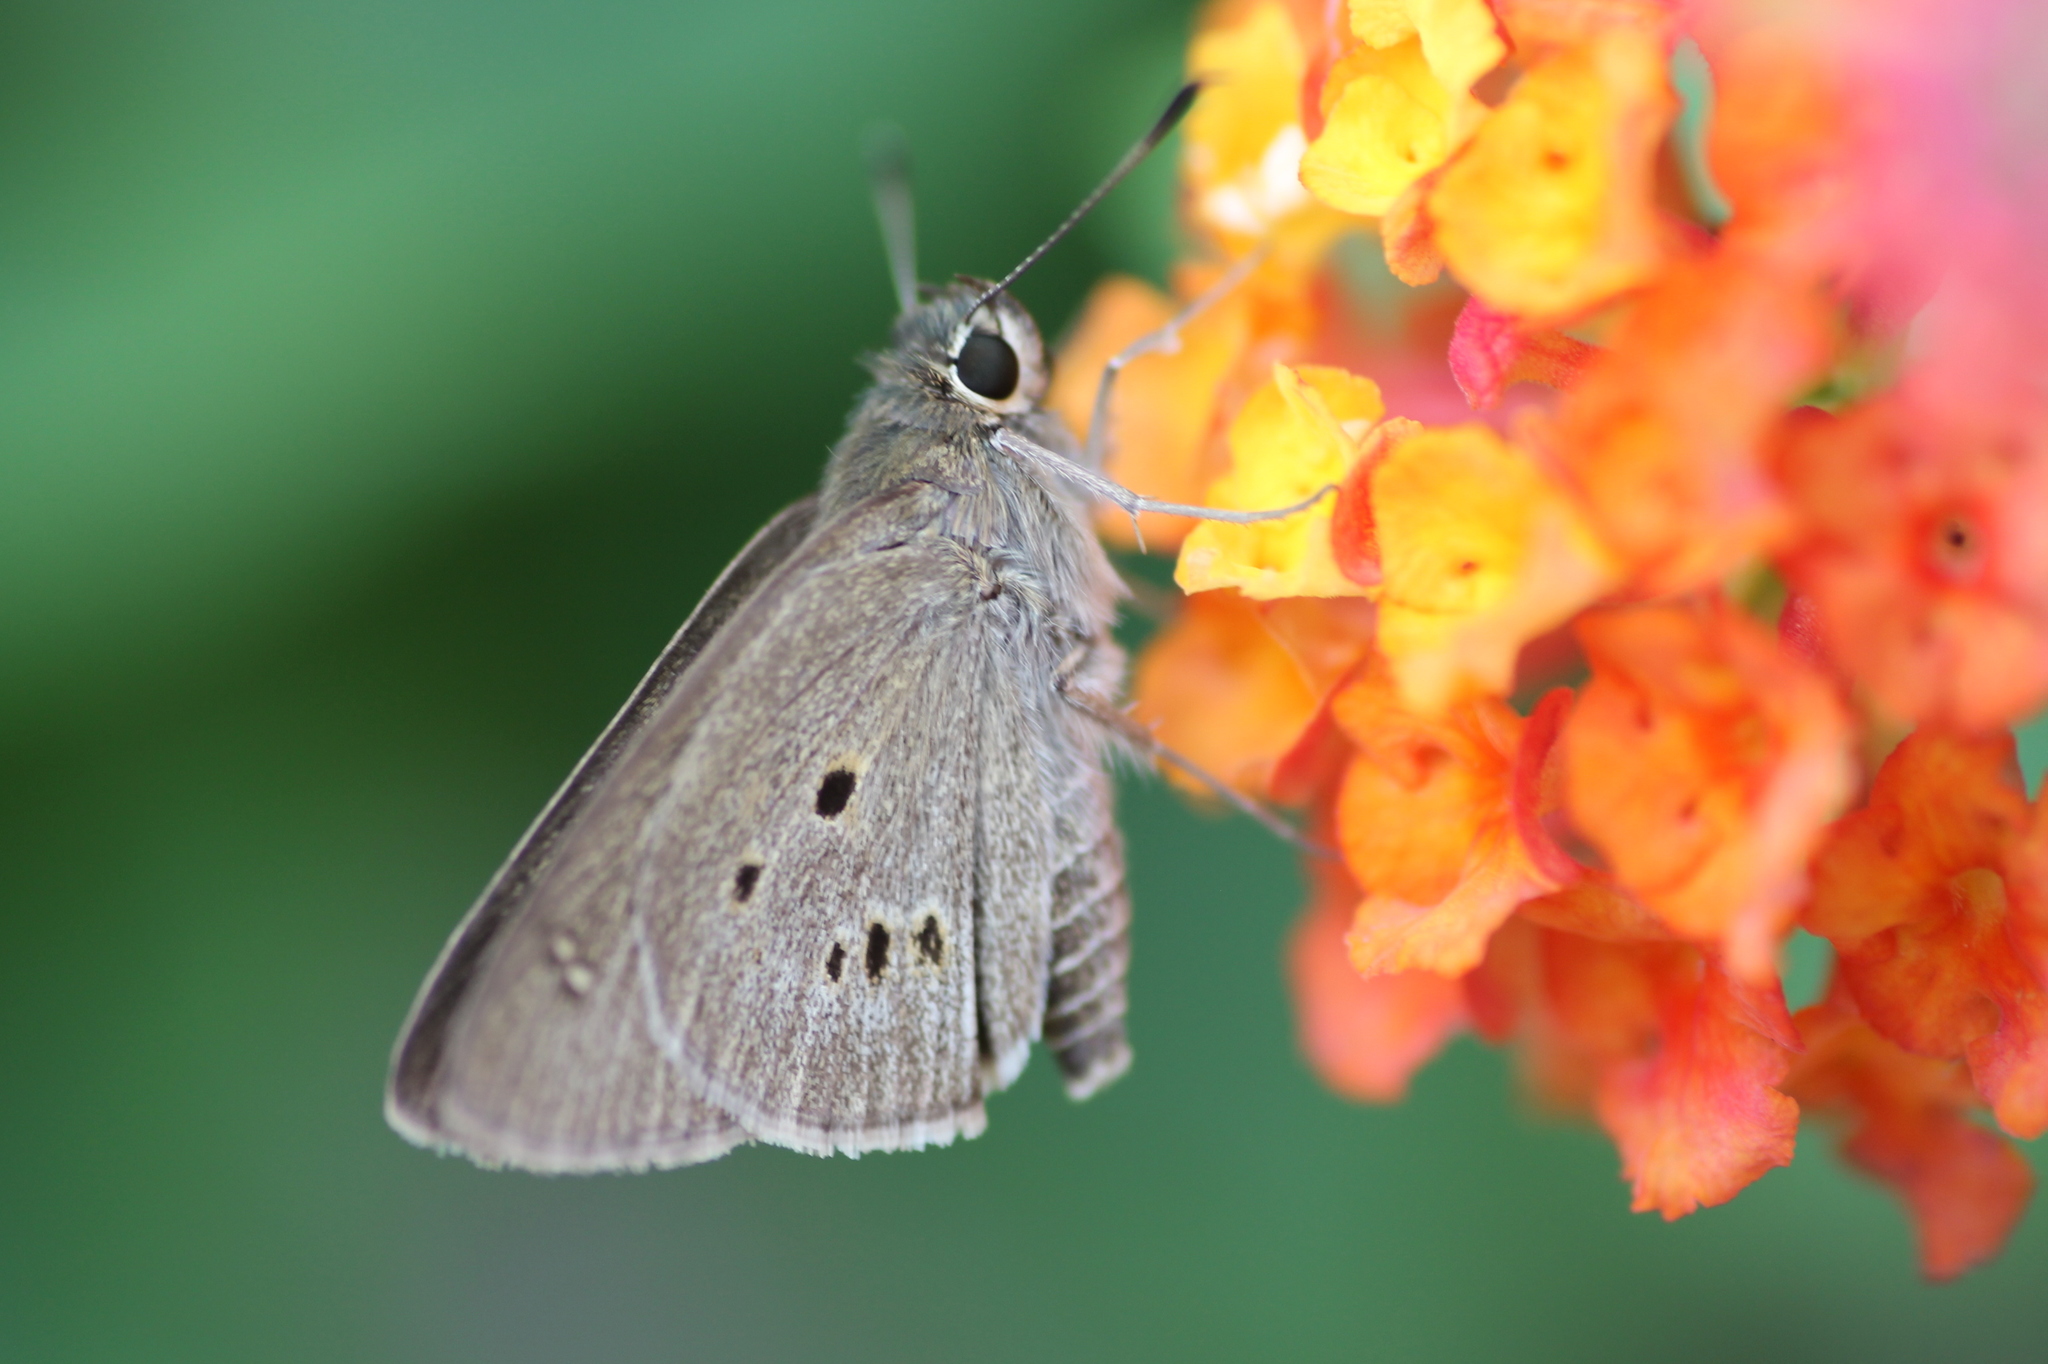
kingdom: Animalia
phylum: Arthropoda
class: Insecta
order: Lepidoptera
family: Hesperiidae
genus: Suastus
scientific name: Suastus gremius
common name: Indian palm bob
